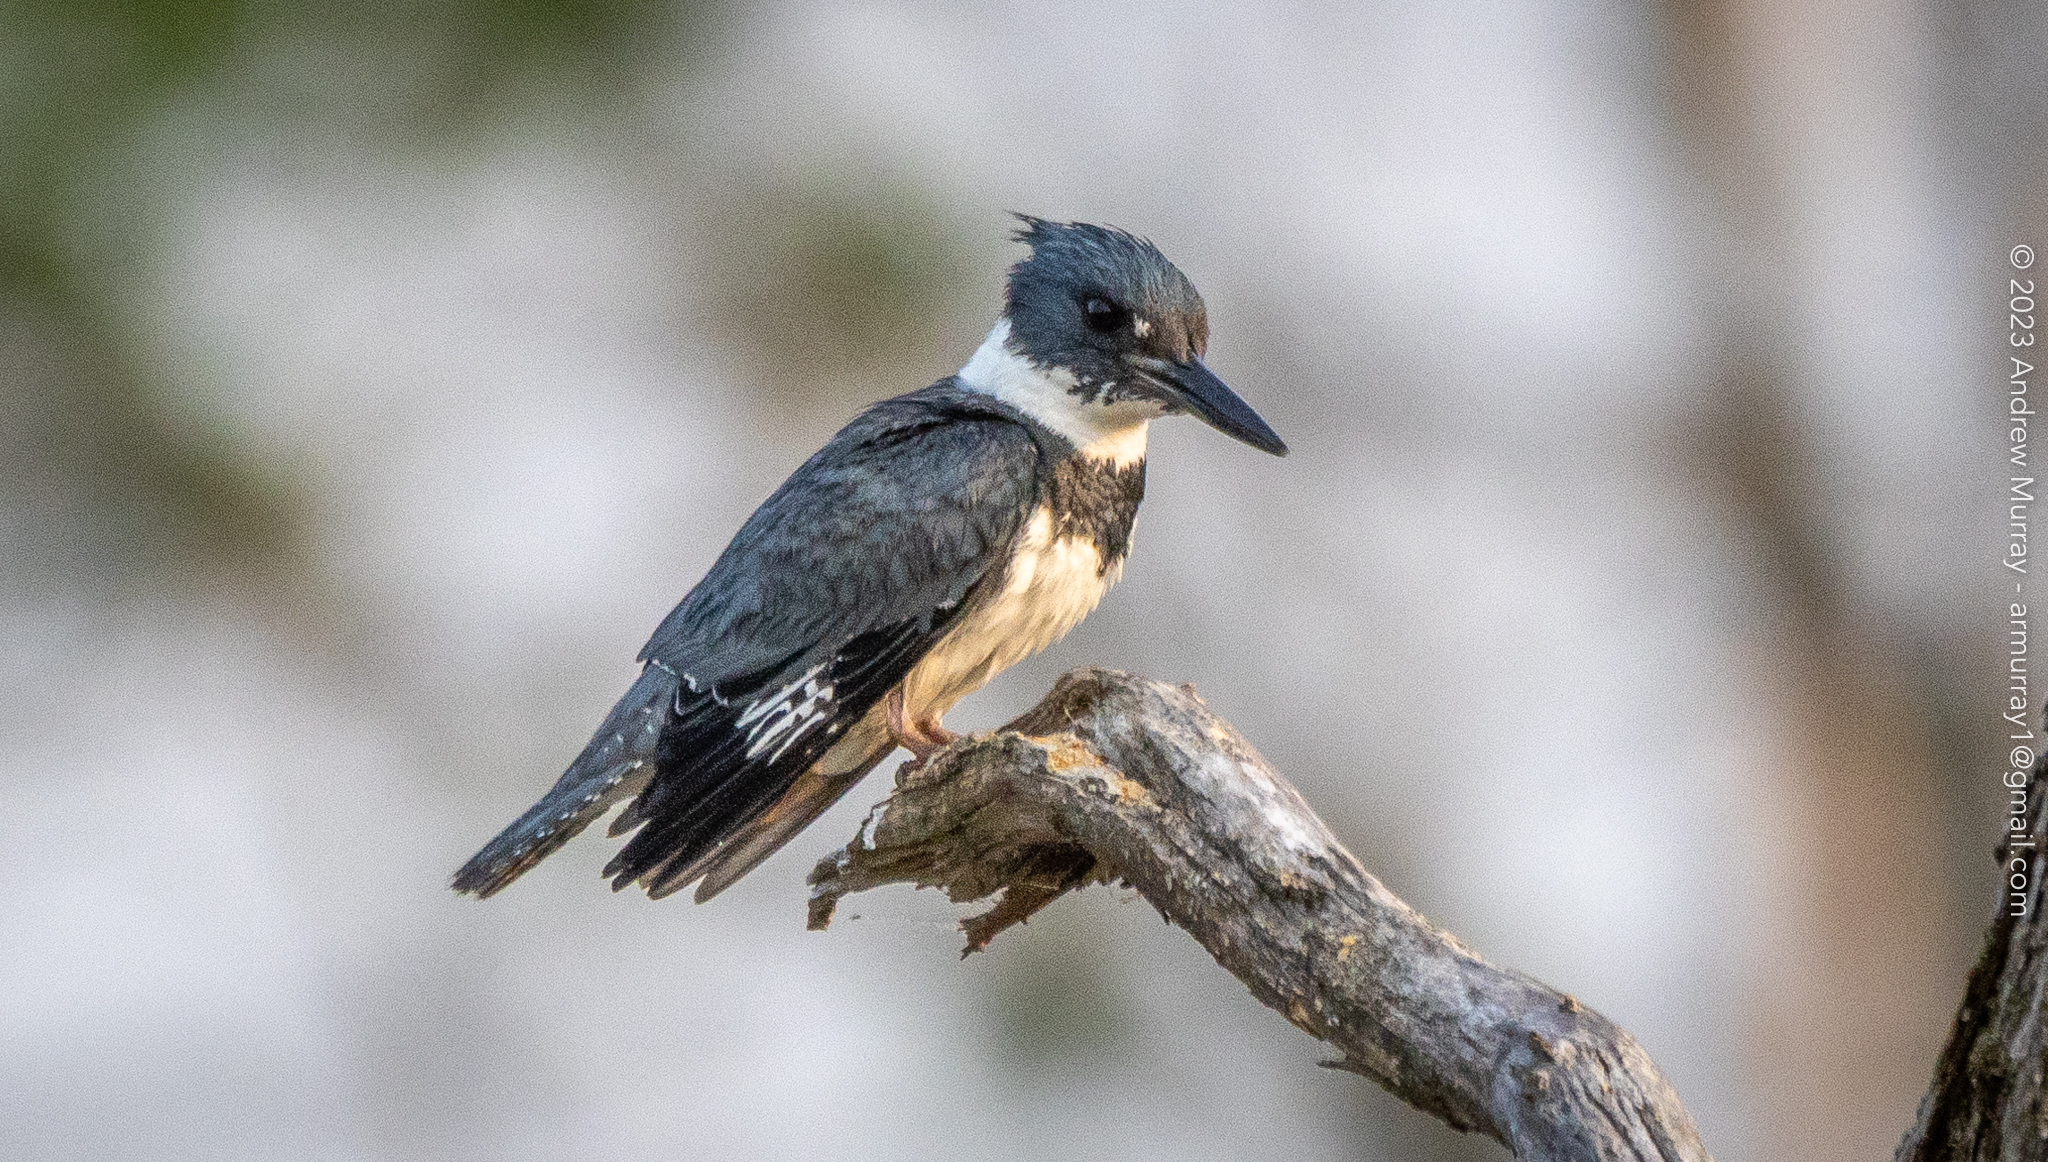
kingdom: Animalia
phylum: Chordata
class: Aves
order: Coraciiformes
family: Alcedinidae
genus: Megaceryle
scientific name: Megaceryle alcyon
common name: Belted kingfisher
